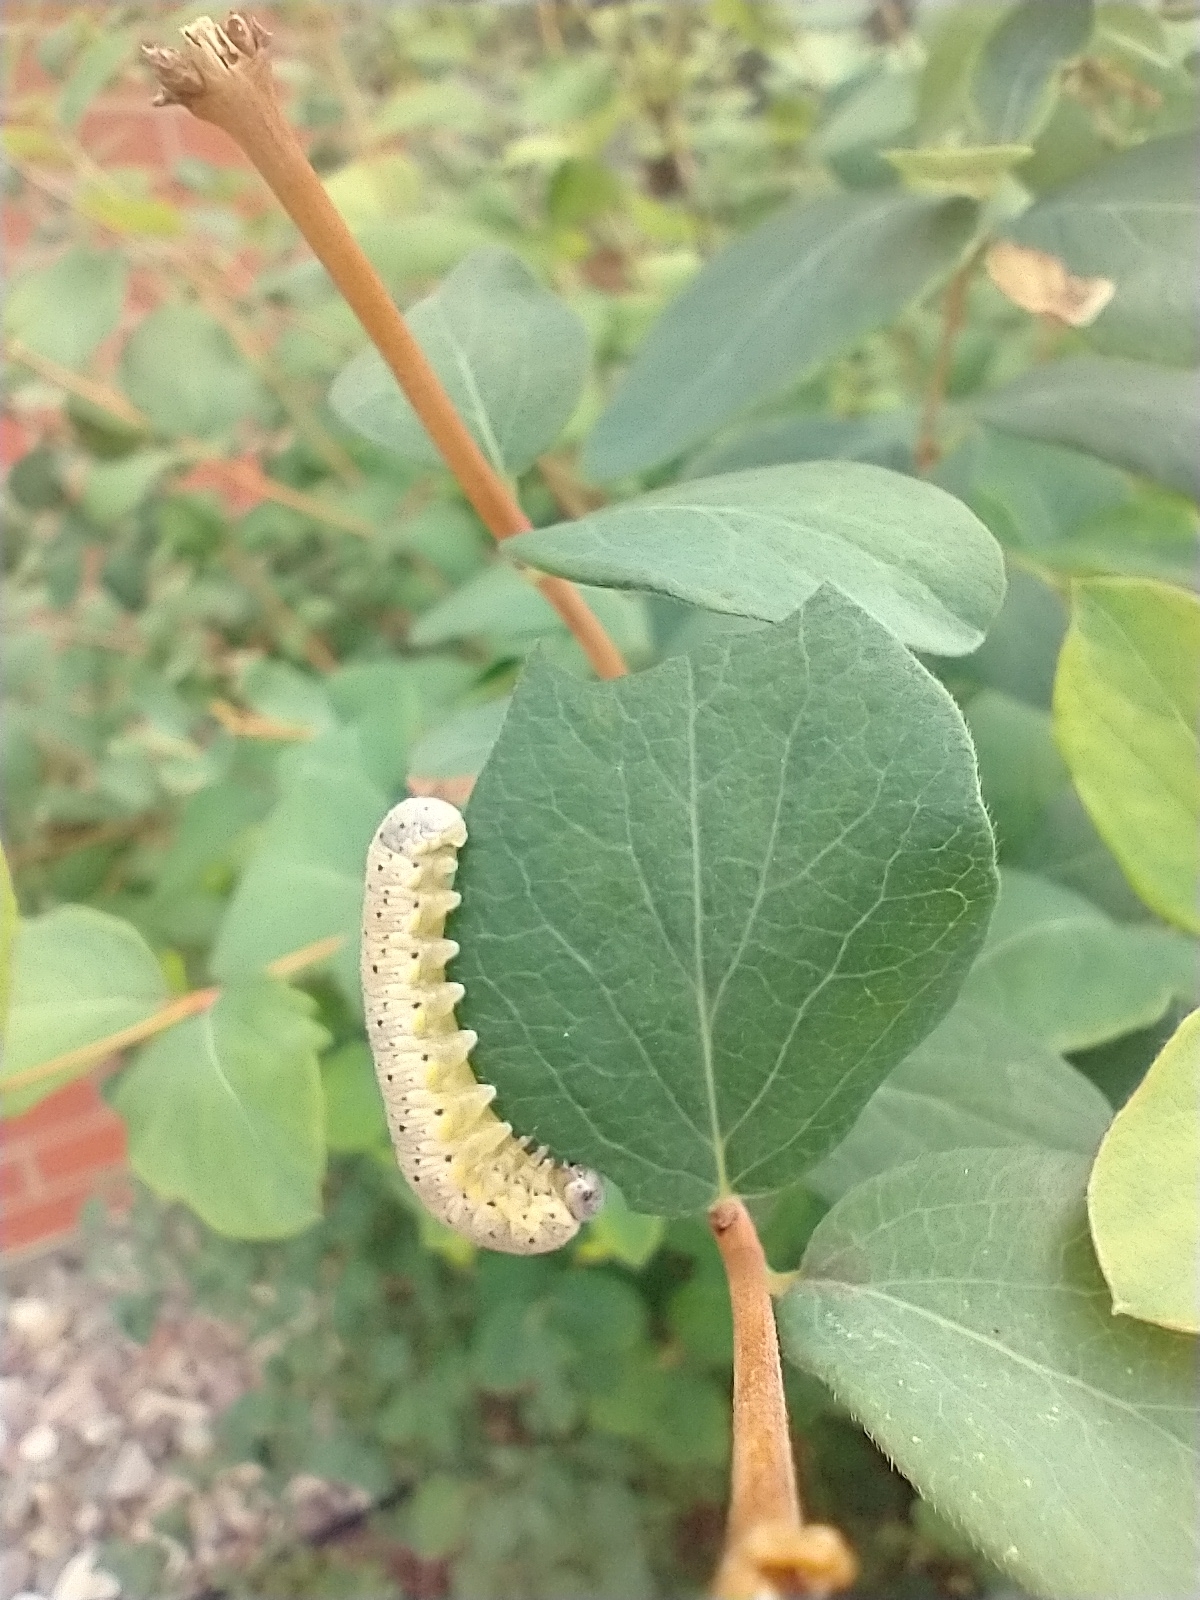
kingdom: Animalia
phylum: Arthropoda
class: Insecta
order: Hymenoptera
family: Cimbicidae
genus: Abia
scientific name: Abia americana
